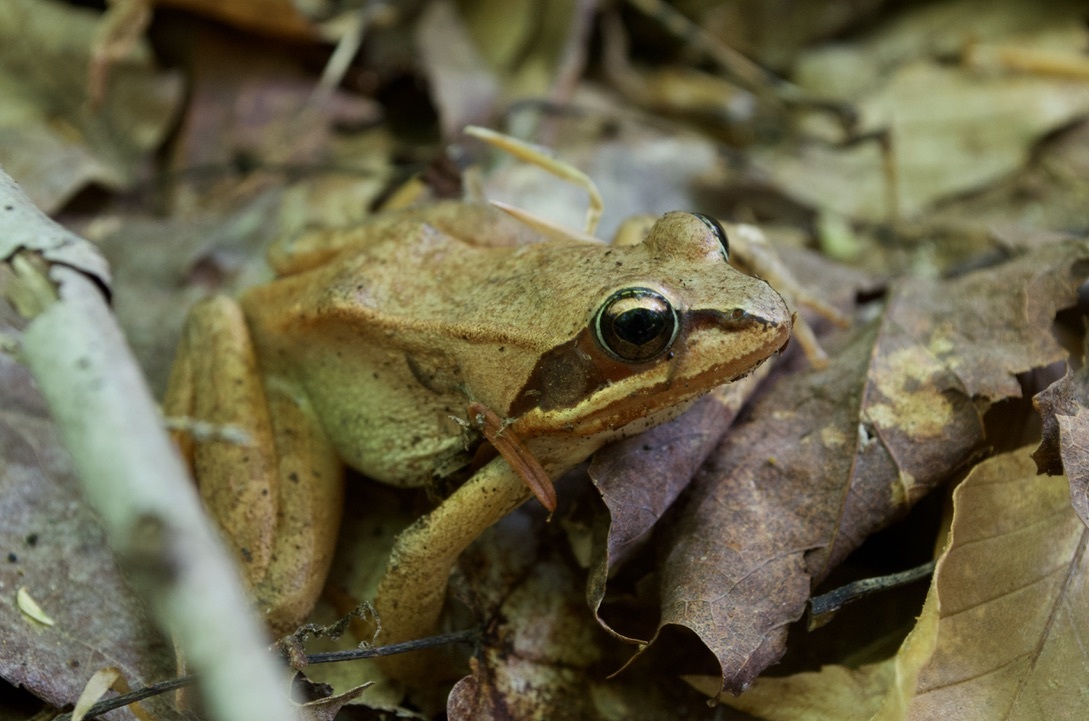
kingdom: Animalia
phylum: Chordata
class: Amphibia
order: Anura
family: Ranidae
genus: Lithobates
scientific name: Lithobates sylvaticus
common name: Wood frog
